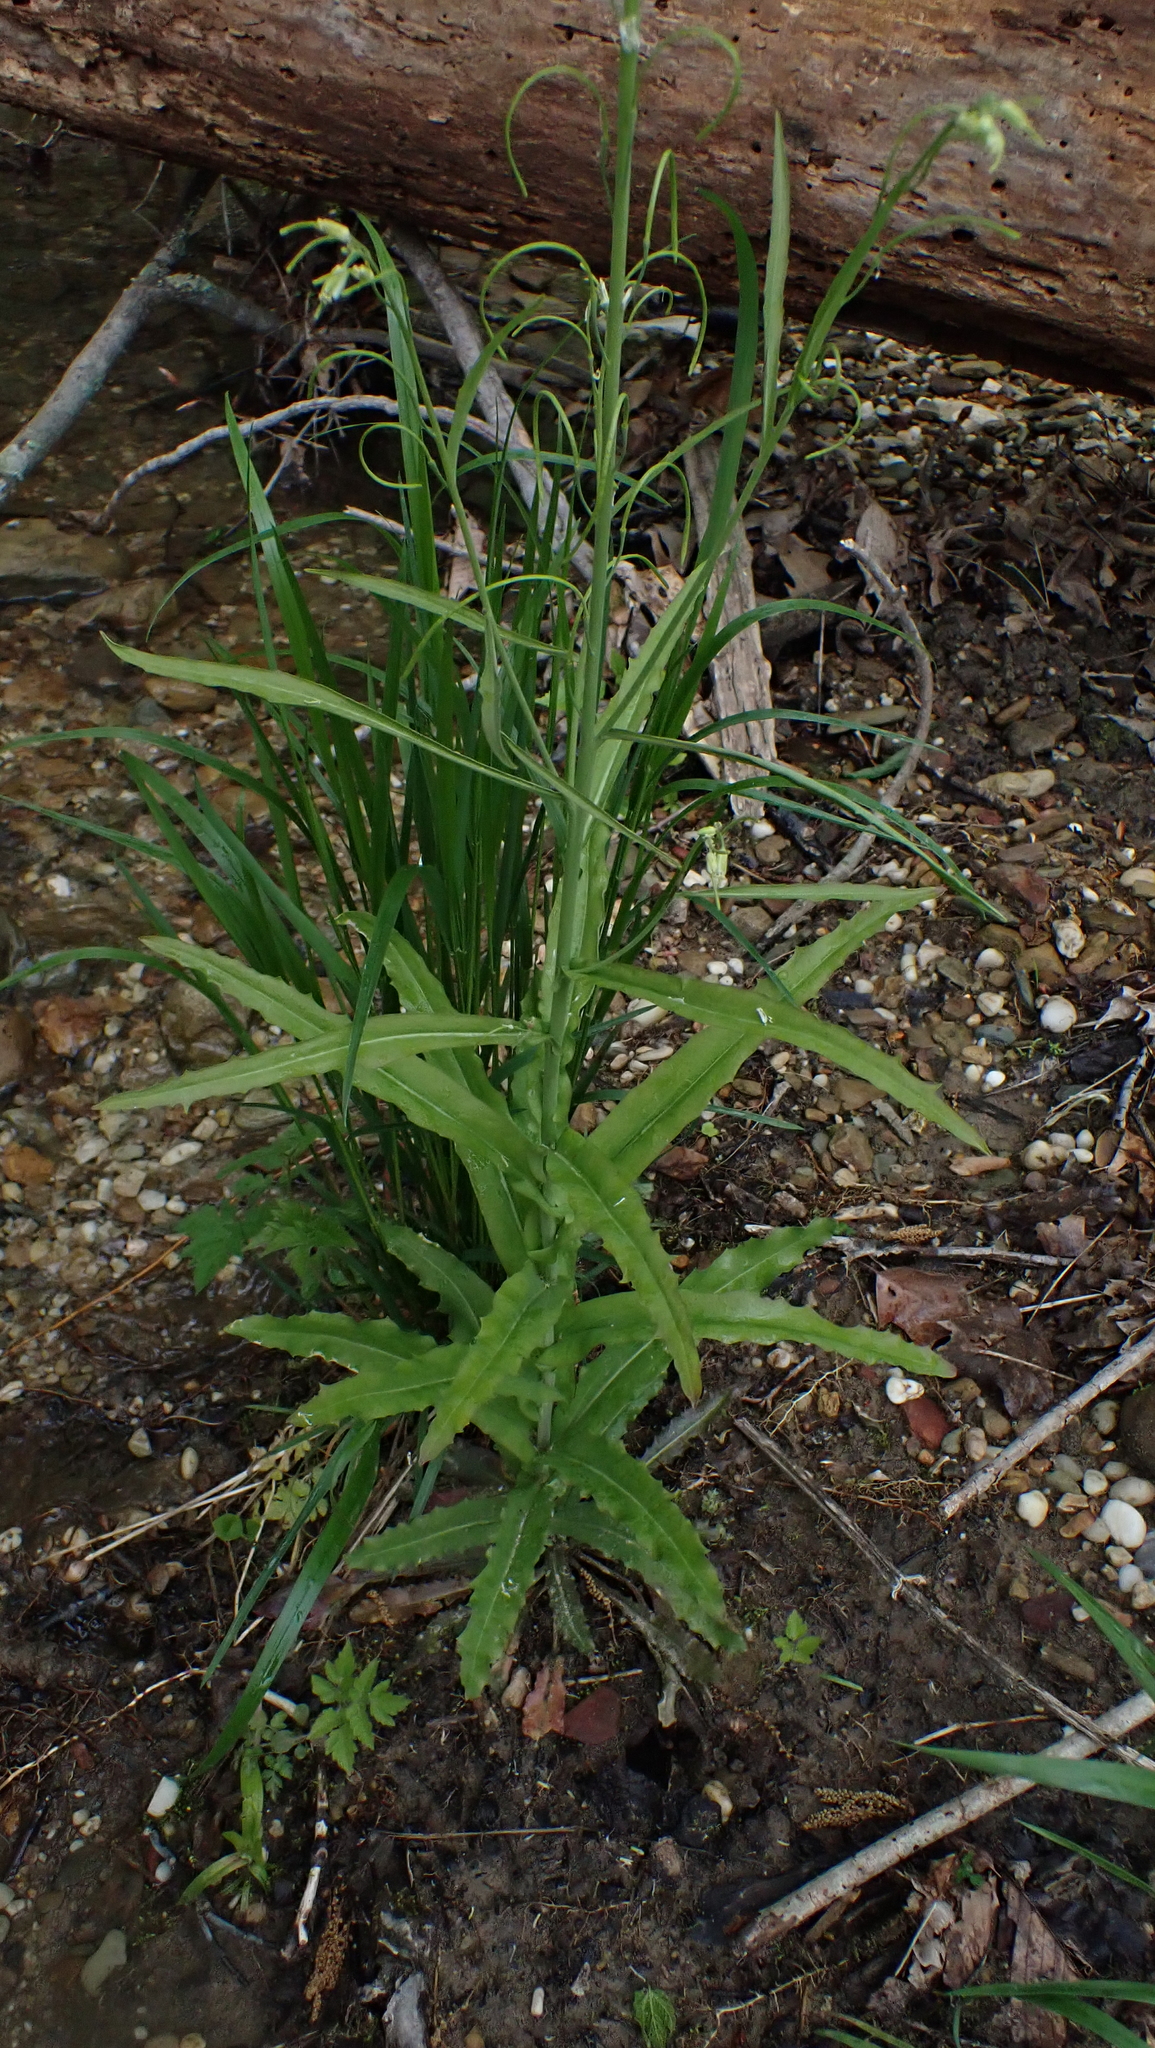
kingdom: Plantae
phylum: Tracheophyta
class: Magnoliopsida
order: Brassicales
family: Brassicaceae
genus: Borodinia
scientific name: Borodinia laevigata
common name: Smooth rockcress
